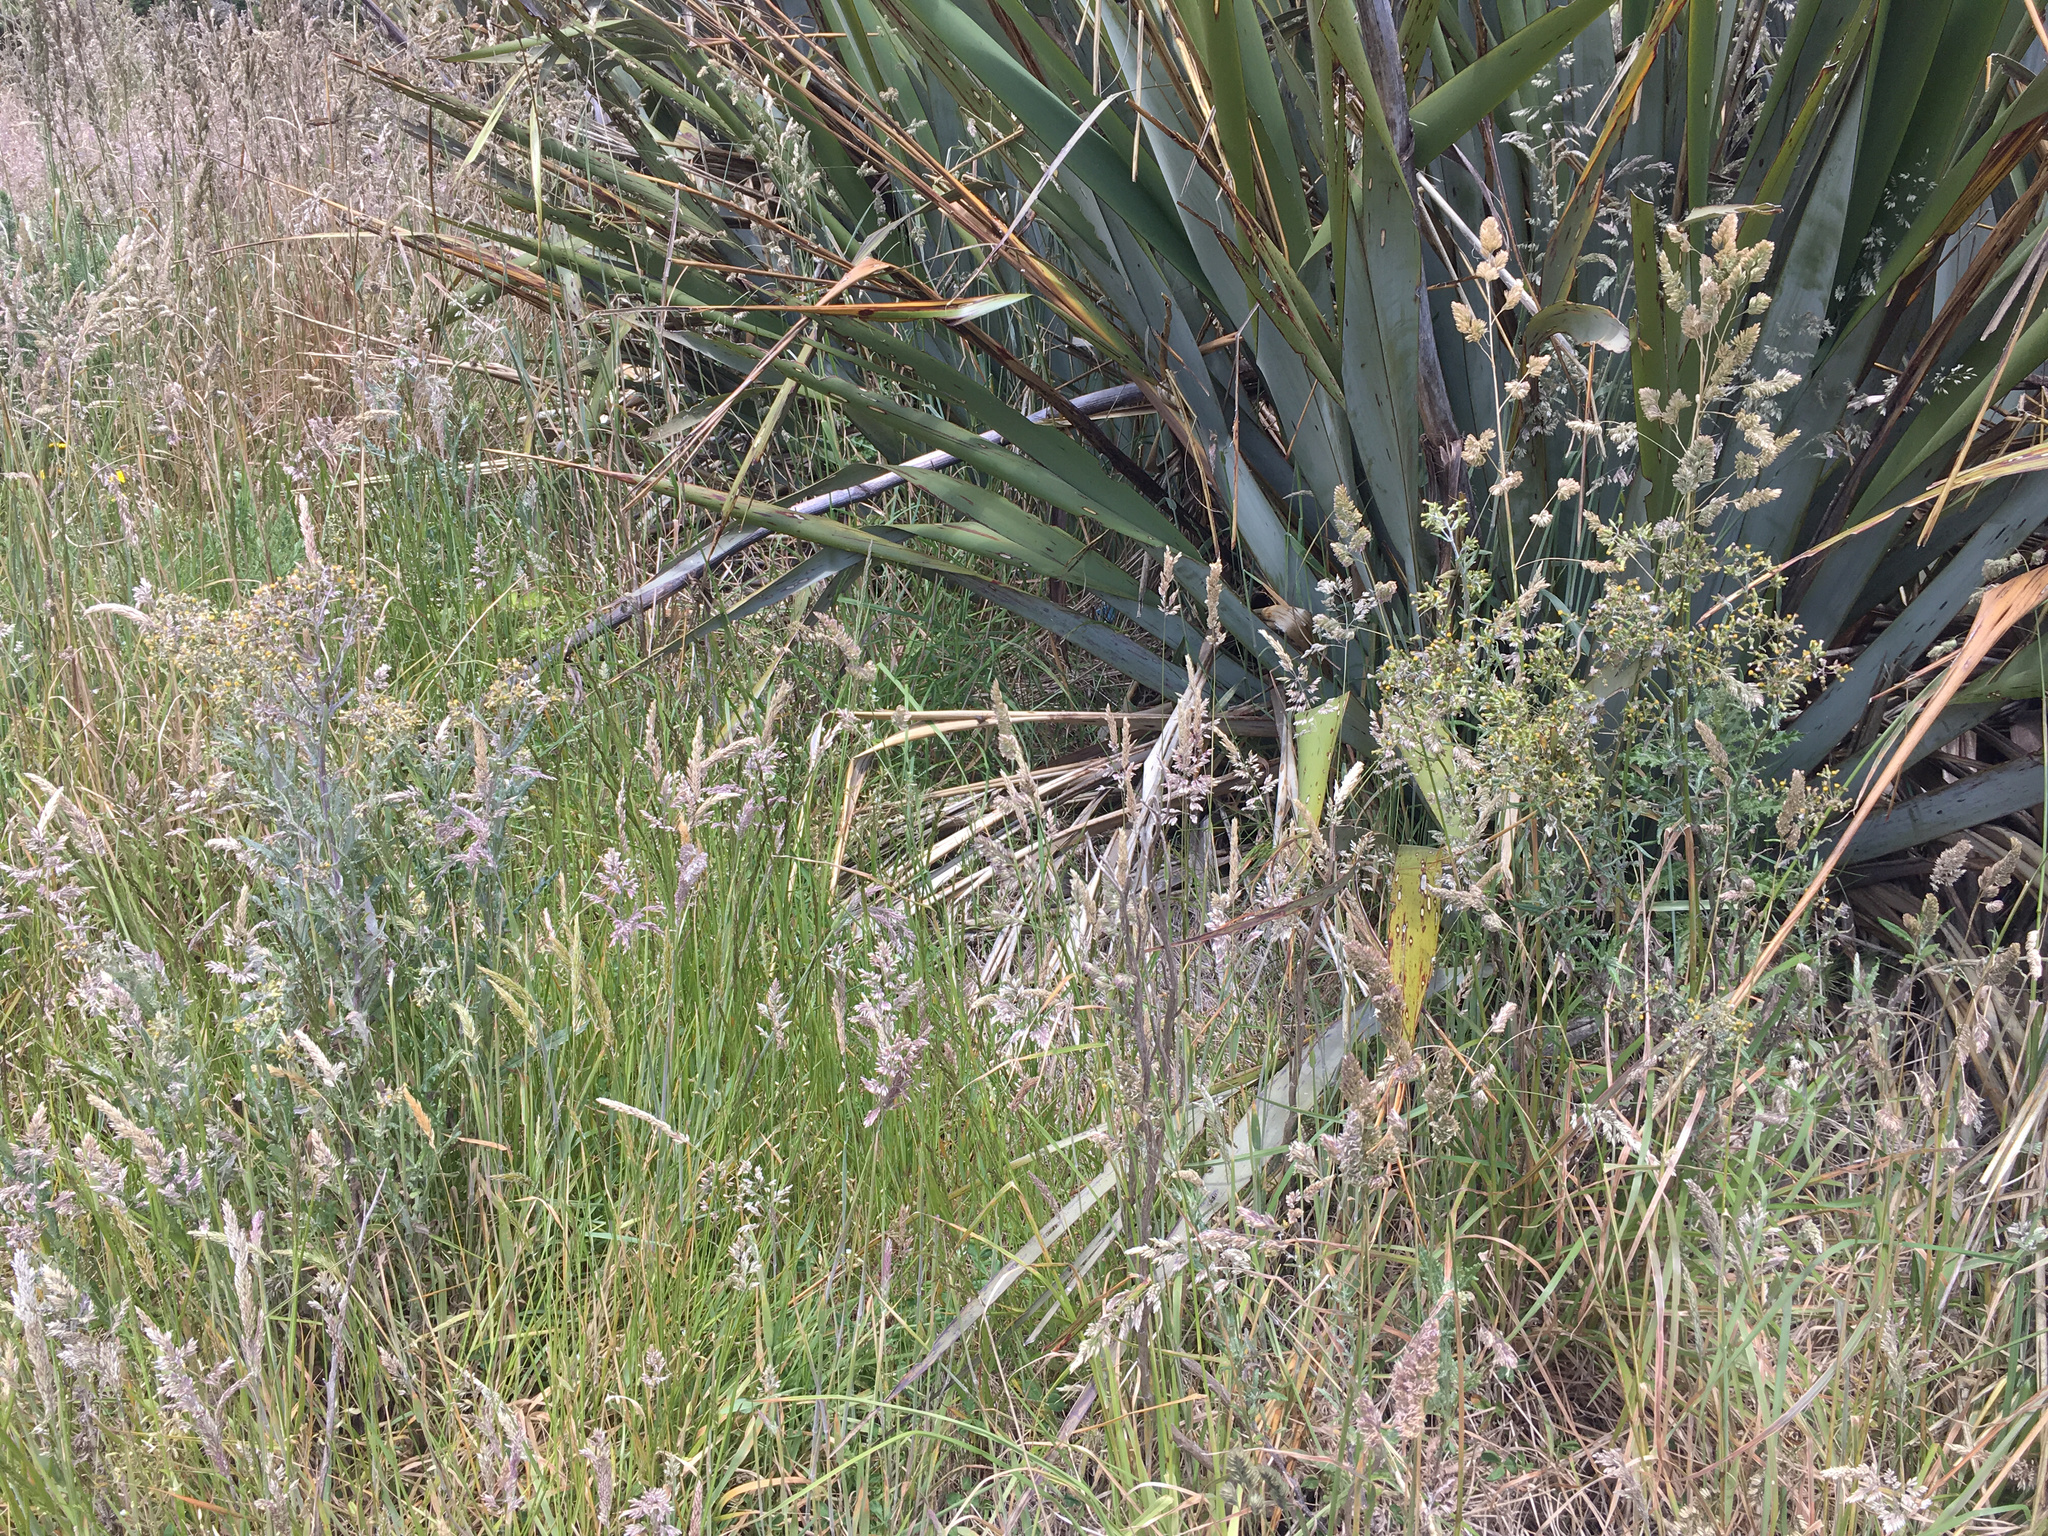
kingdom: Plantae
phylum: Tracheophyta
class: Magnoliopsida
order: Asterales
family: Asteraceae
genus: Senecio
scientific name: Senecio glomeratus
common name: Cutleaf burnweed
